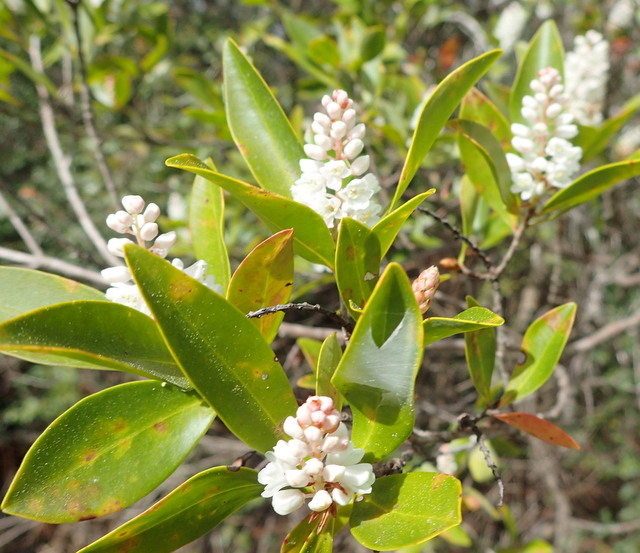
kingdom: Plantae
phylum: Tracheophyta
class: Magnoliopsida
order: Ericales
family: Cyrillaceae
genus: Cliftonia
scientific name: Cliftonia monophylla
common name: Titi
